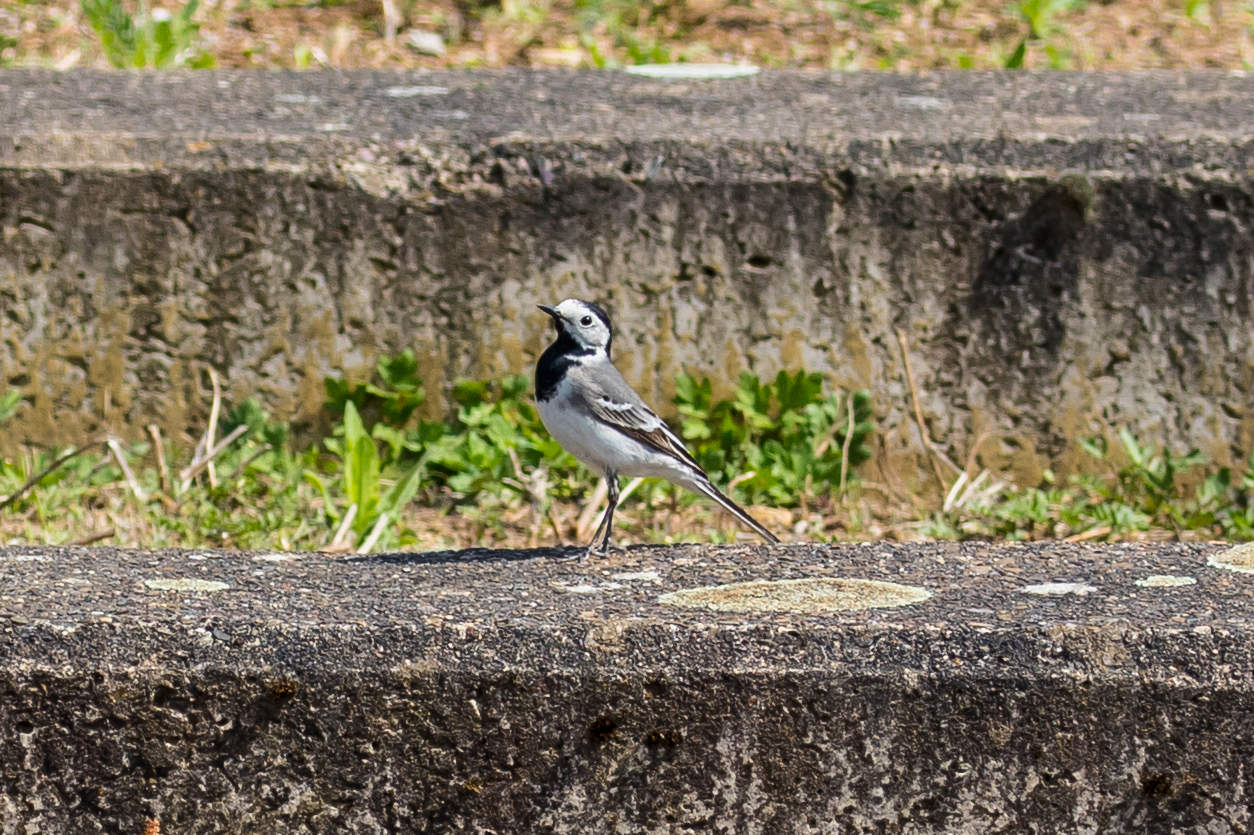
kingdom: Animalia
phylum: Chordata
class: Aves
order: Passeriformes
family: Motacillidae
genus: Motacilla
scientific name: Motacilla alba
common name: White wagtail
